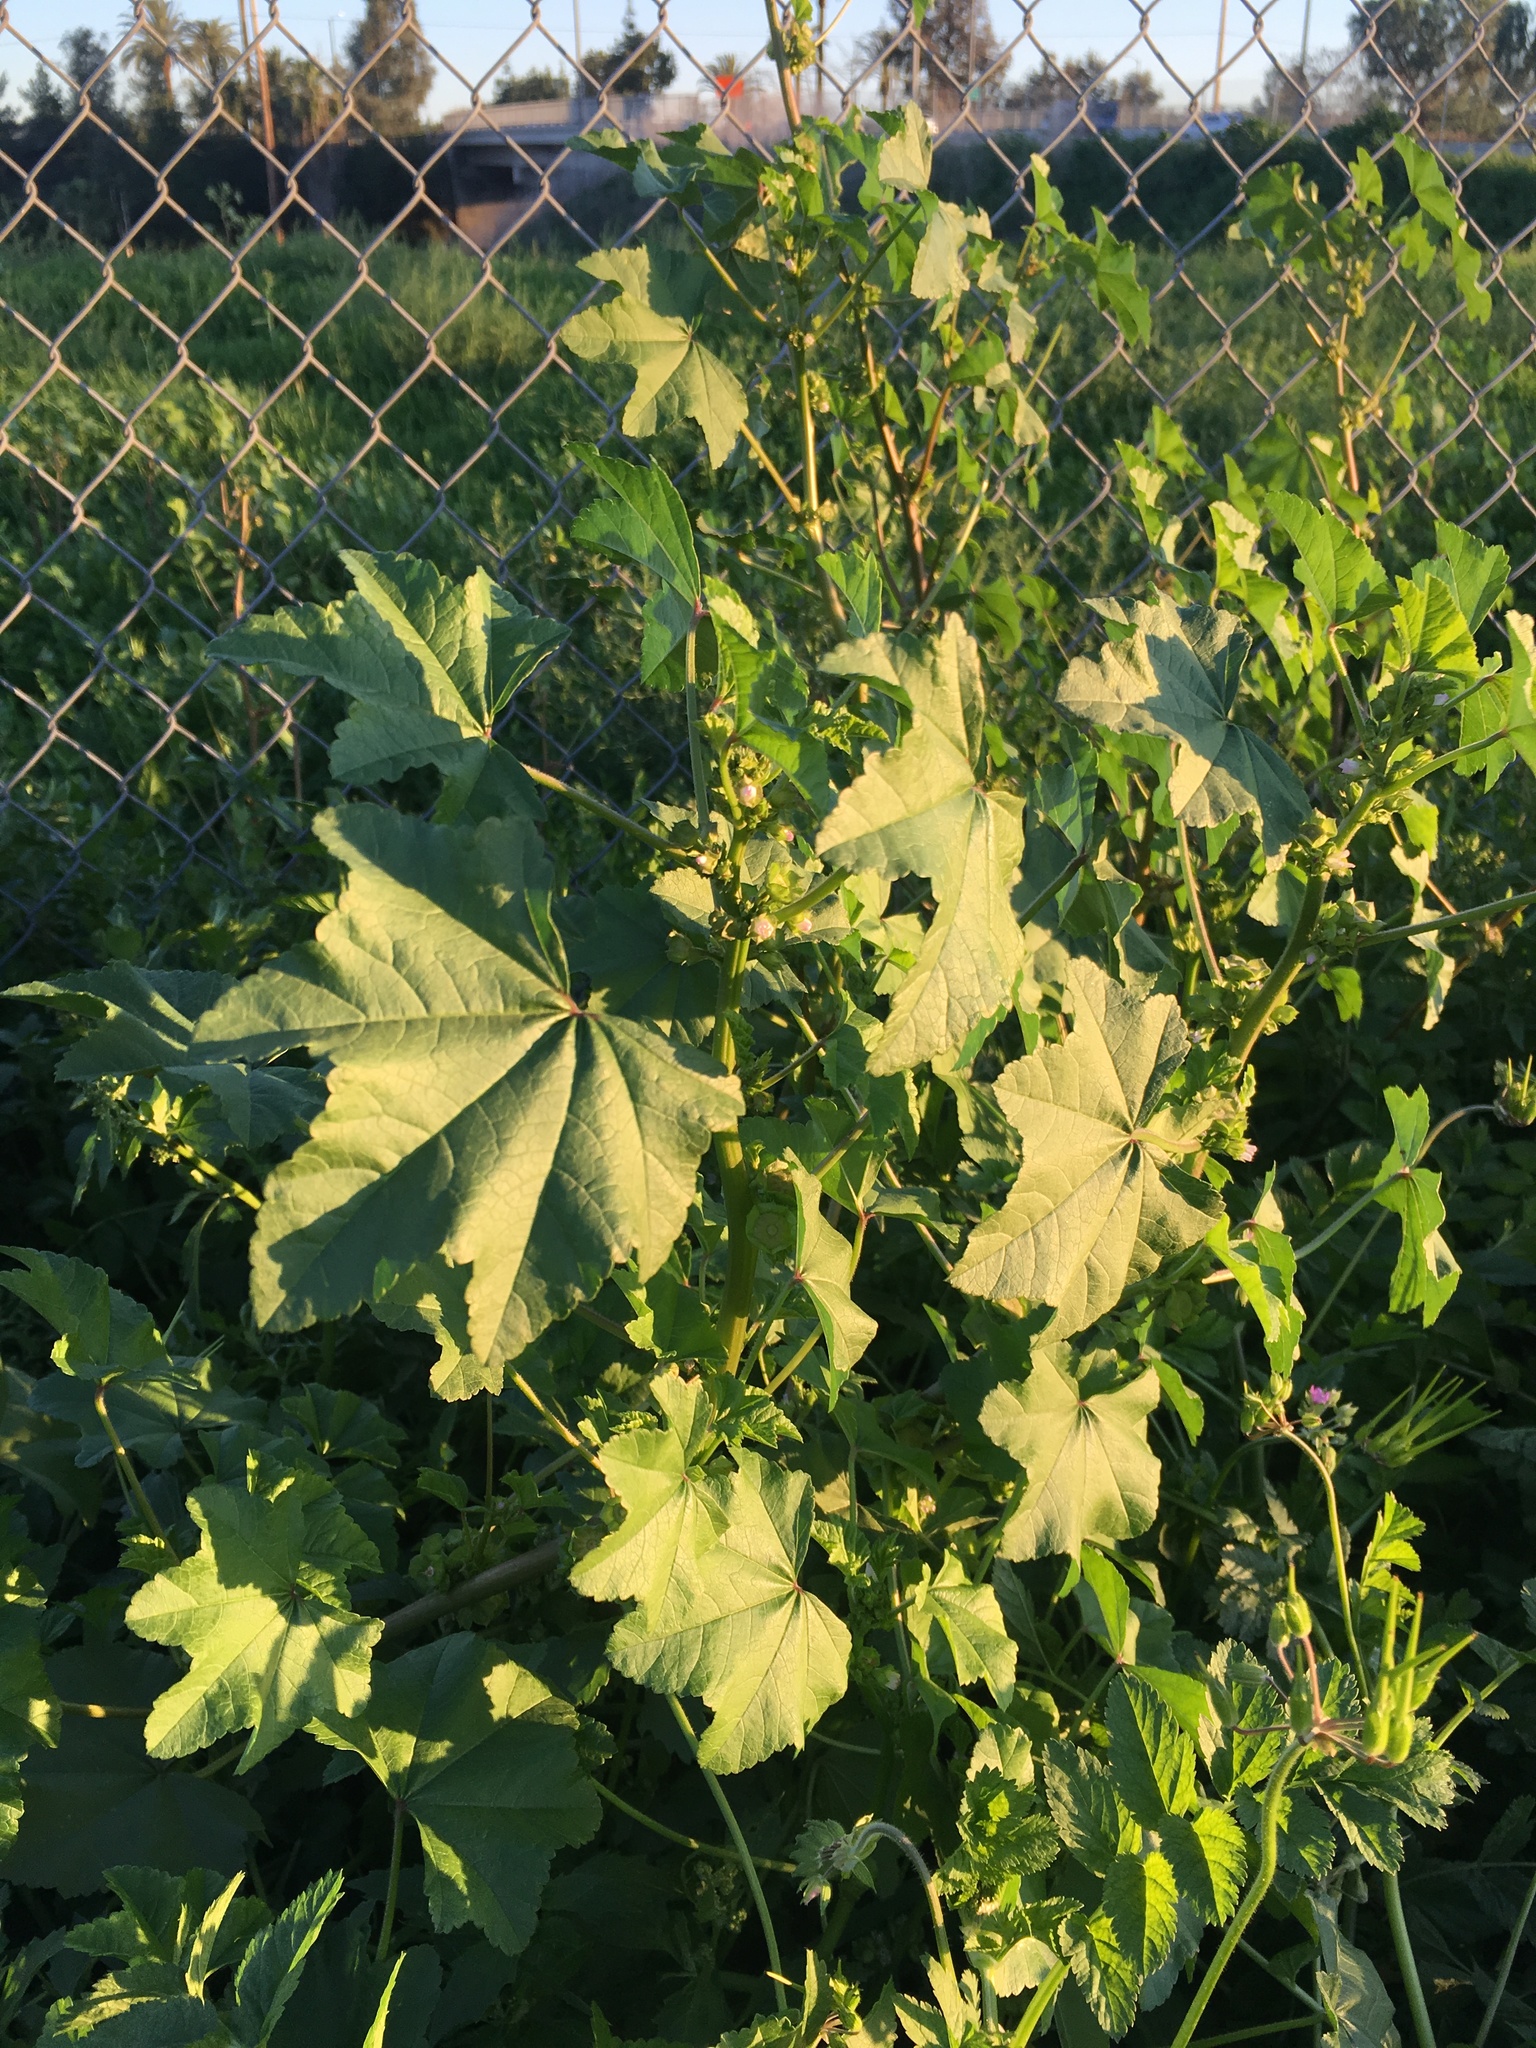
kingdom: Plantae
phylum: Tracheophyta
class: Magnoliopsida
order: Malvales
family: Malvaceae
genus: Malva
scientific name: Malva parviflora
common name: Least mallow
